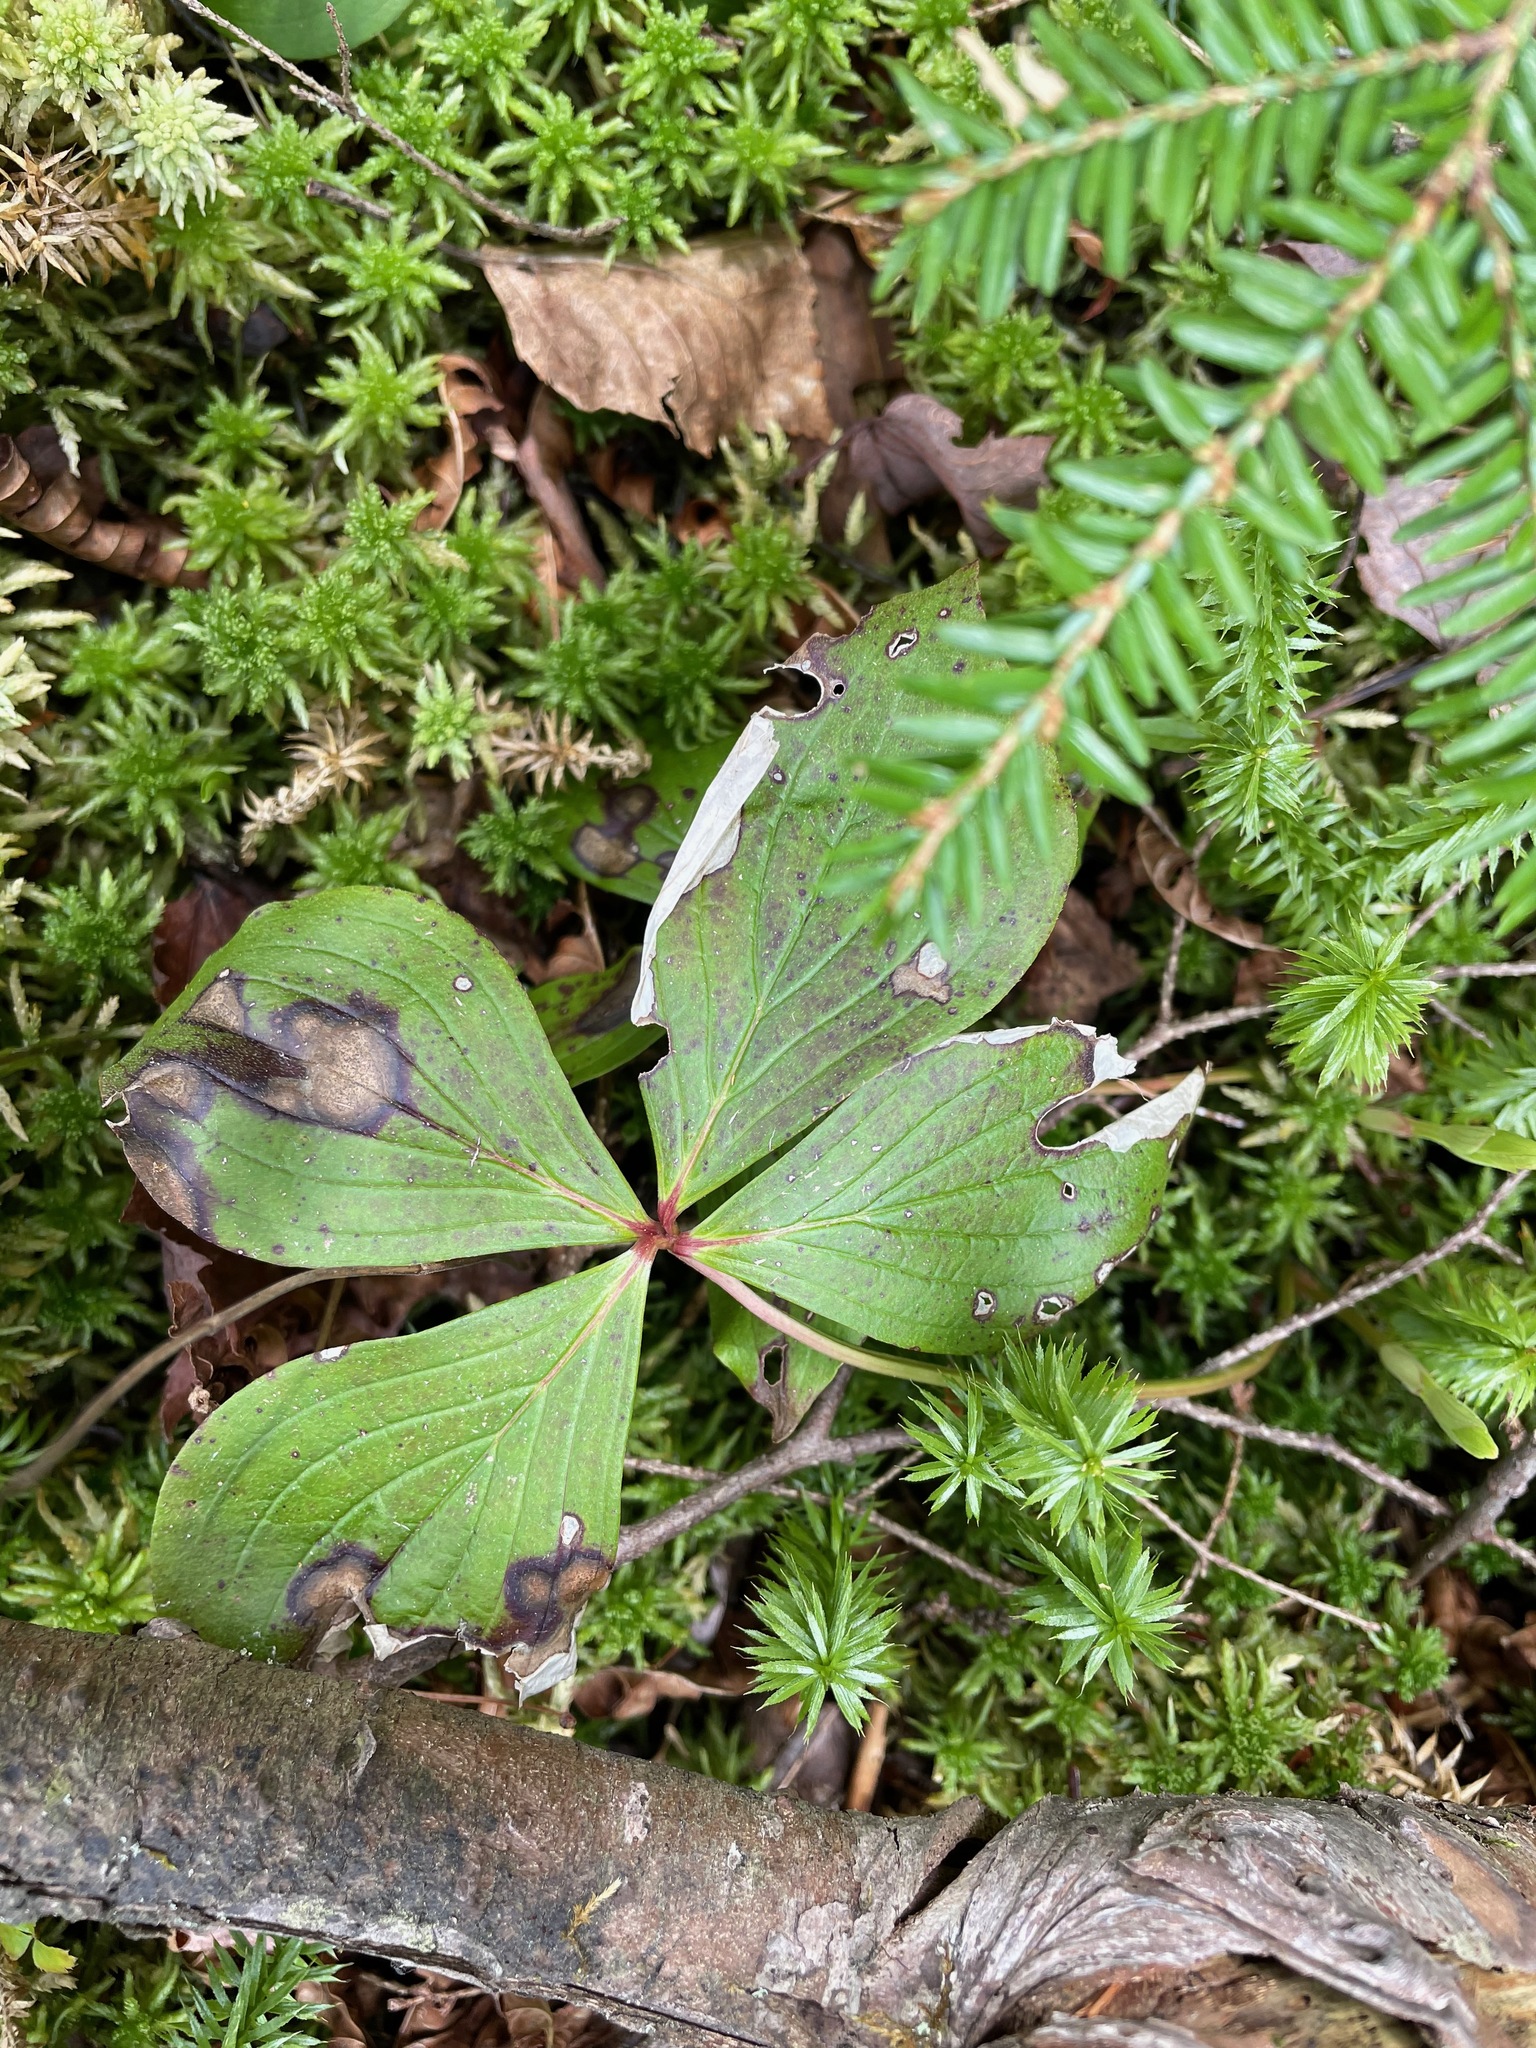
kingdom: Plantae
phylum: Tracheophyta
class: Magnoliopsida
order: Cornales
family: Cornaceae
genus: Cornus
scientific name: Cornus canadensis
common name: Creeping dogwood
